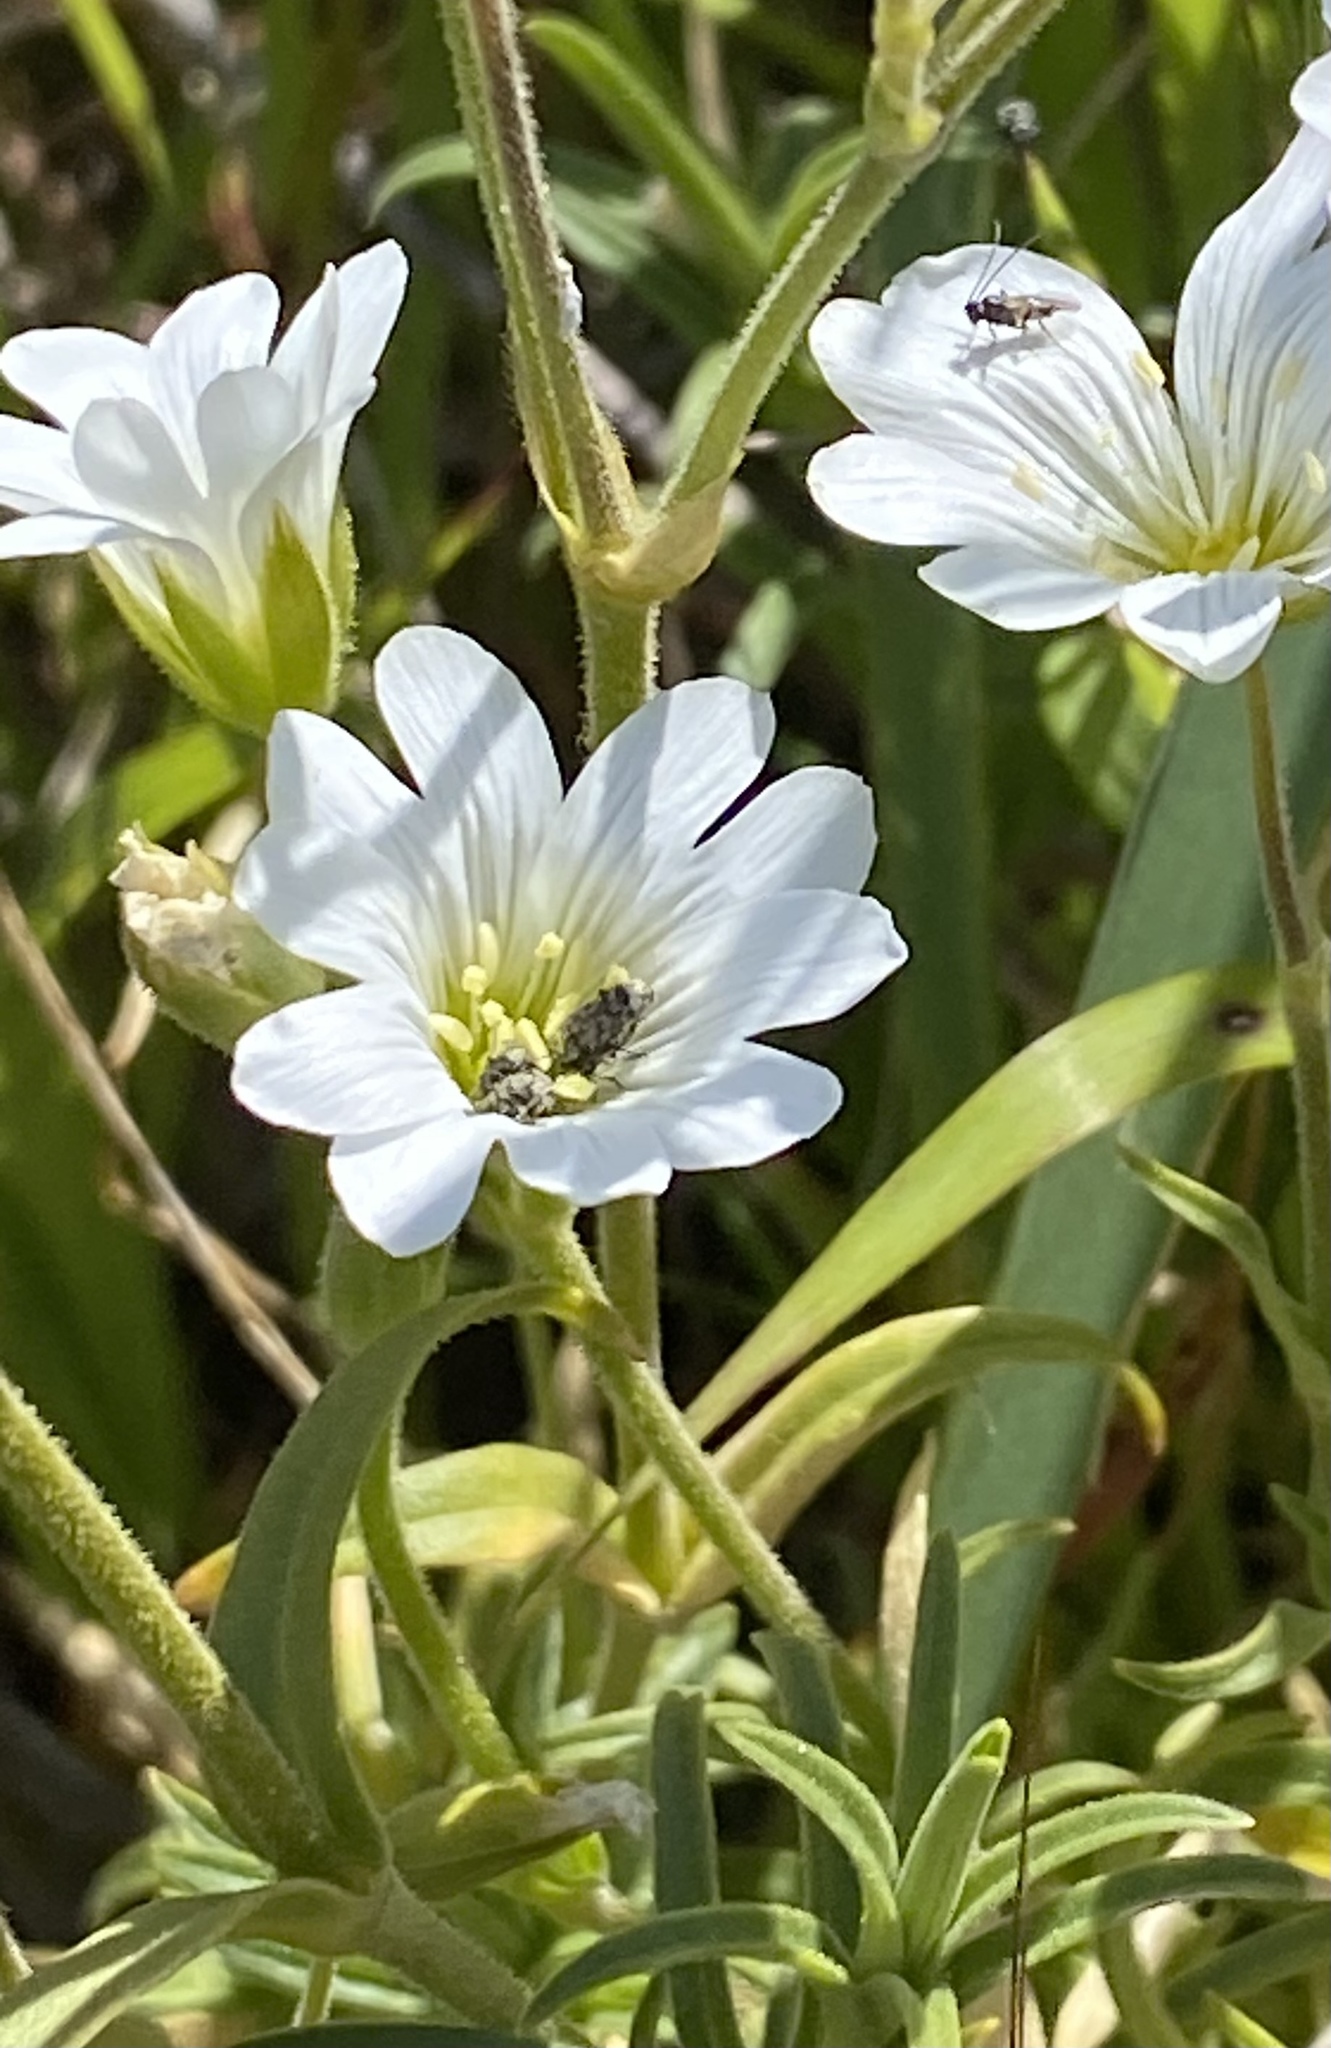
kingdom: Plantae
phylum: Tracheophyta
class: Magnoliopsida
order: Caryophyllales
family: Caryophyllaceae
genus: Cerastium
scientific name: Cerastium arvense
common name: Field mouse-ear
